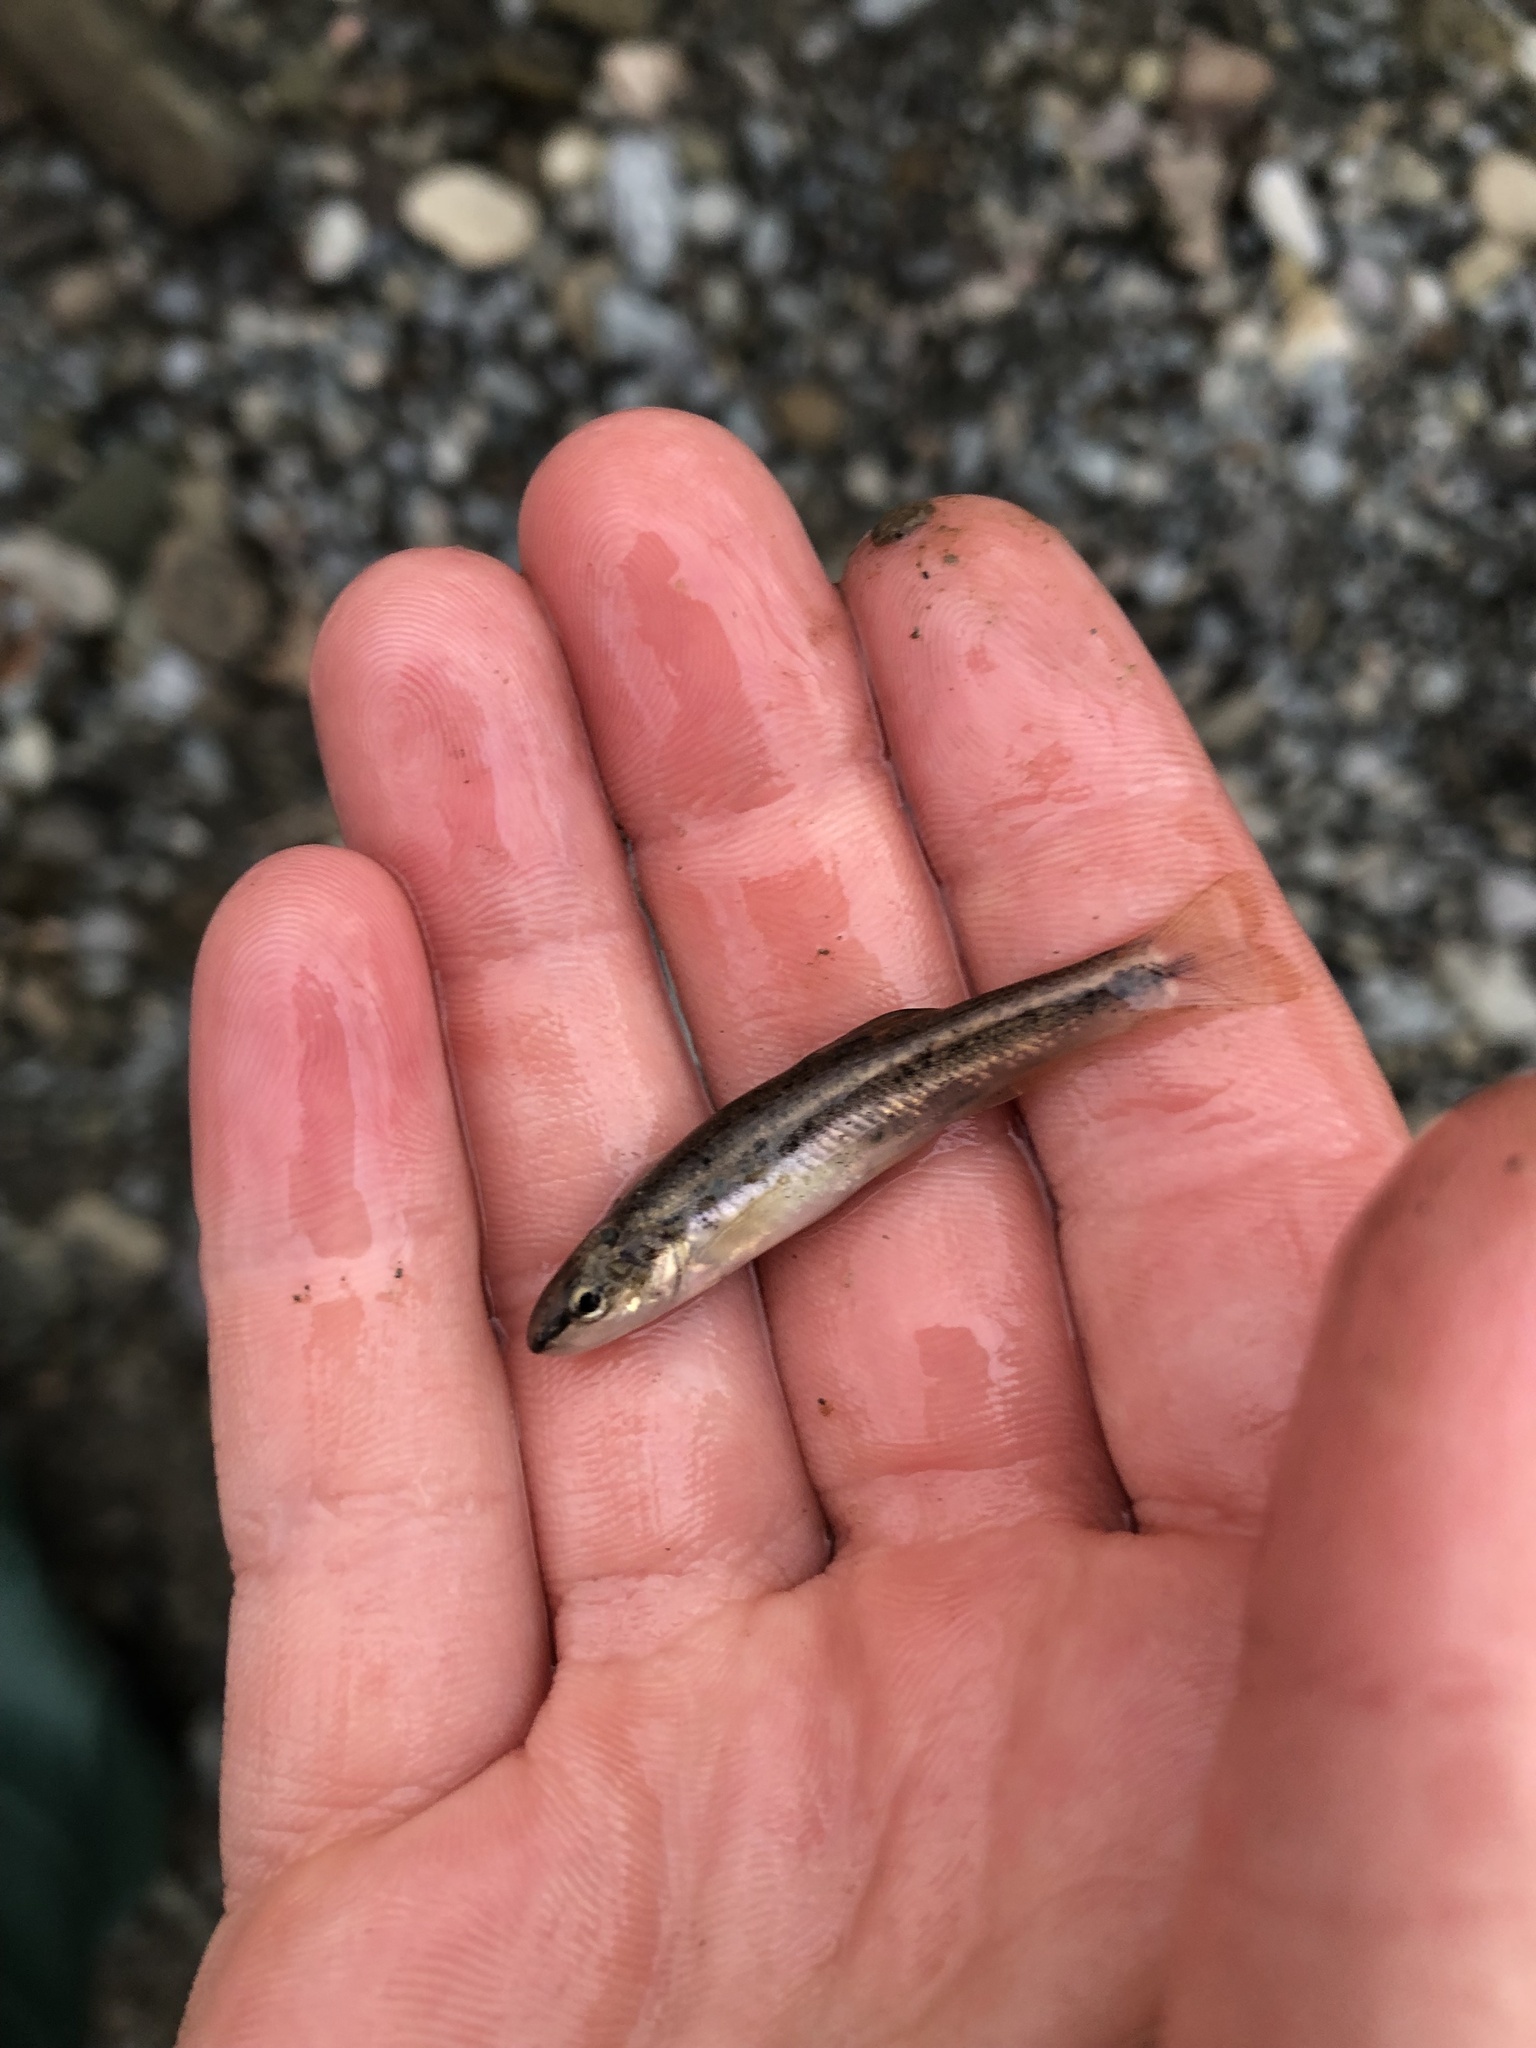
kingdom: Animalia
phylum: Chordata
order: Cypriniformes
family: Cyprinidae
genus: Rhinichthys
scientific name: Rhinichthys obtusus
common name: Western blacknose dace
